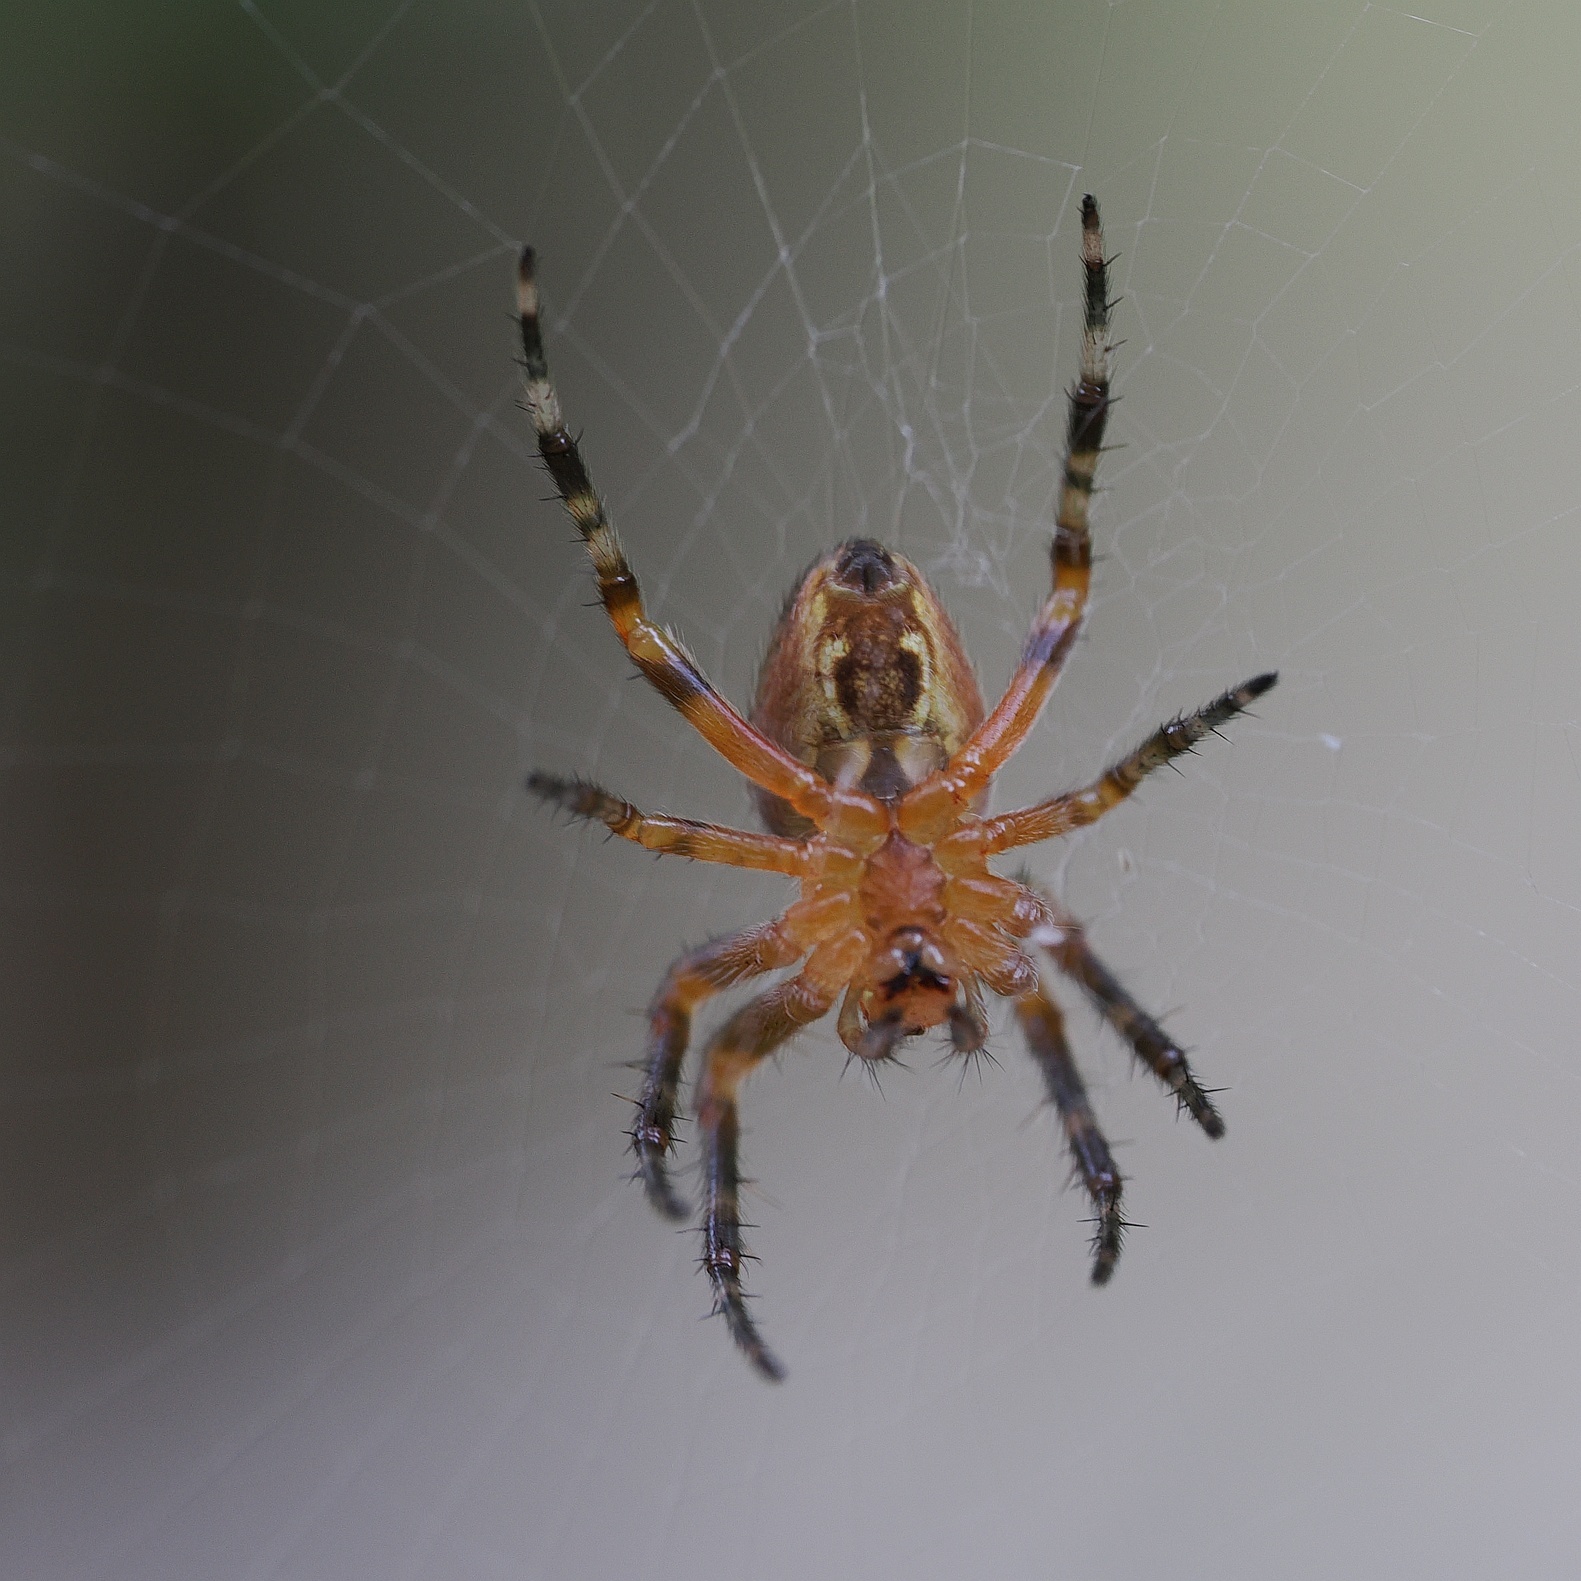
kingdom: Animalia
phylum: Arthropoda
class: Arachnida
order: Araneae
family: Araneidae
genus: Araneus
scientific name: Araneus diadematus
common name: Cross orbweaver
